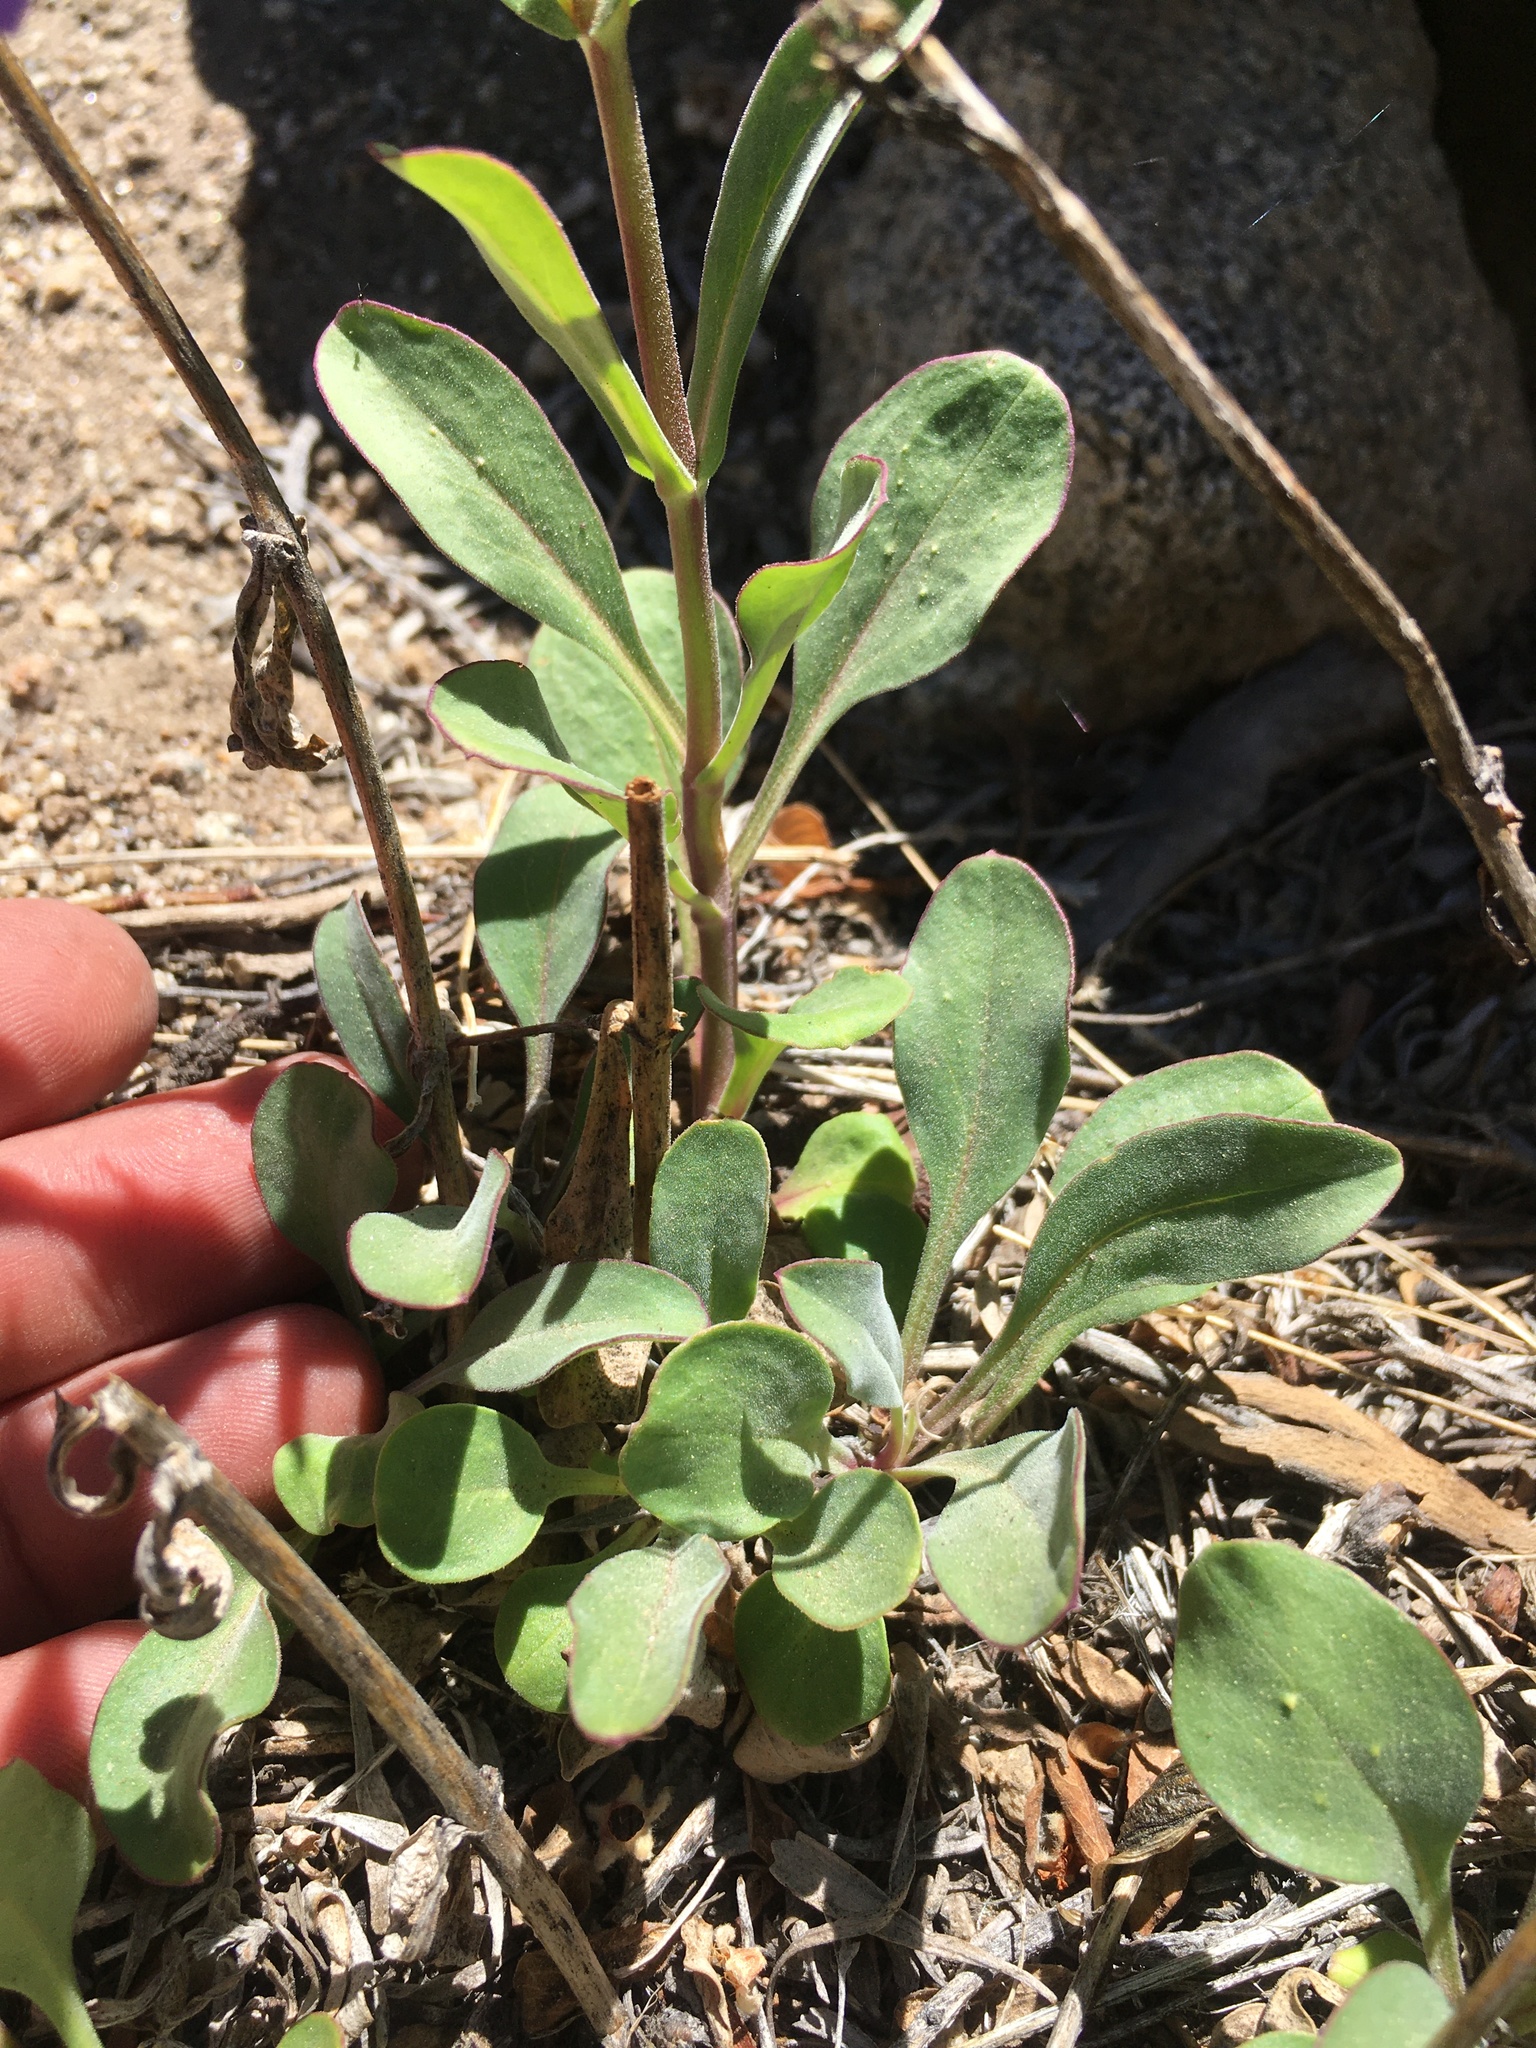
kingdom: Plantae
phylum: Tracheophyta
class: Magnoliopsida
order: Lamiales
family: Plantaginaceae
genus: Penstemon
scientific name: Penstemon papillatus
